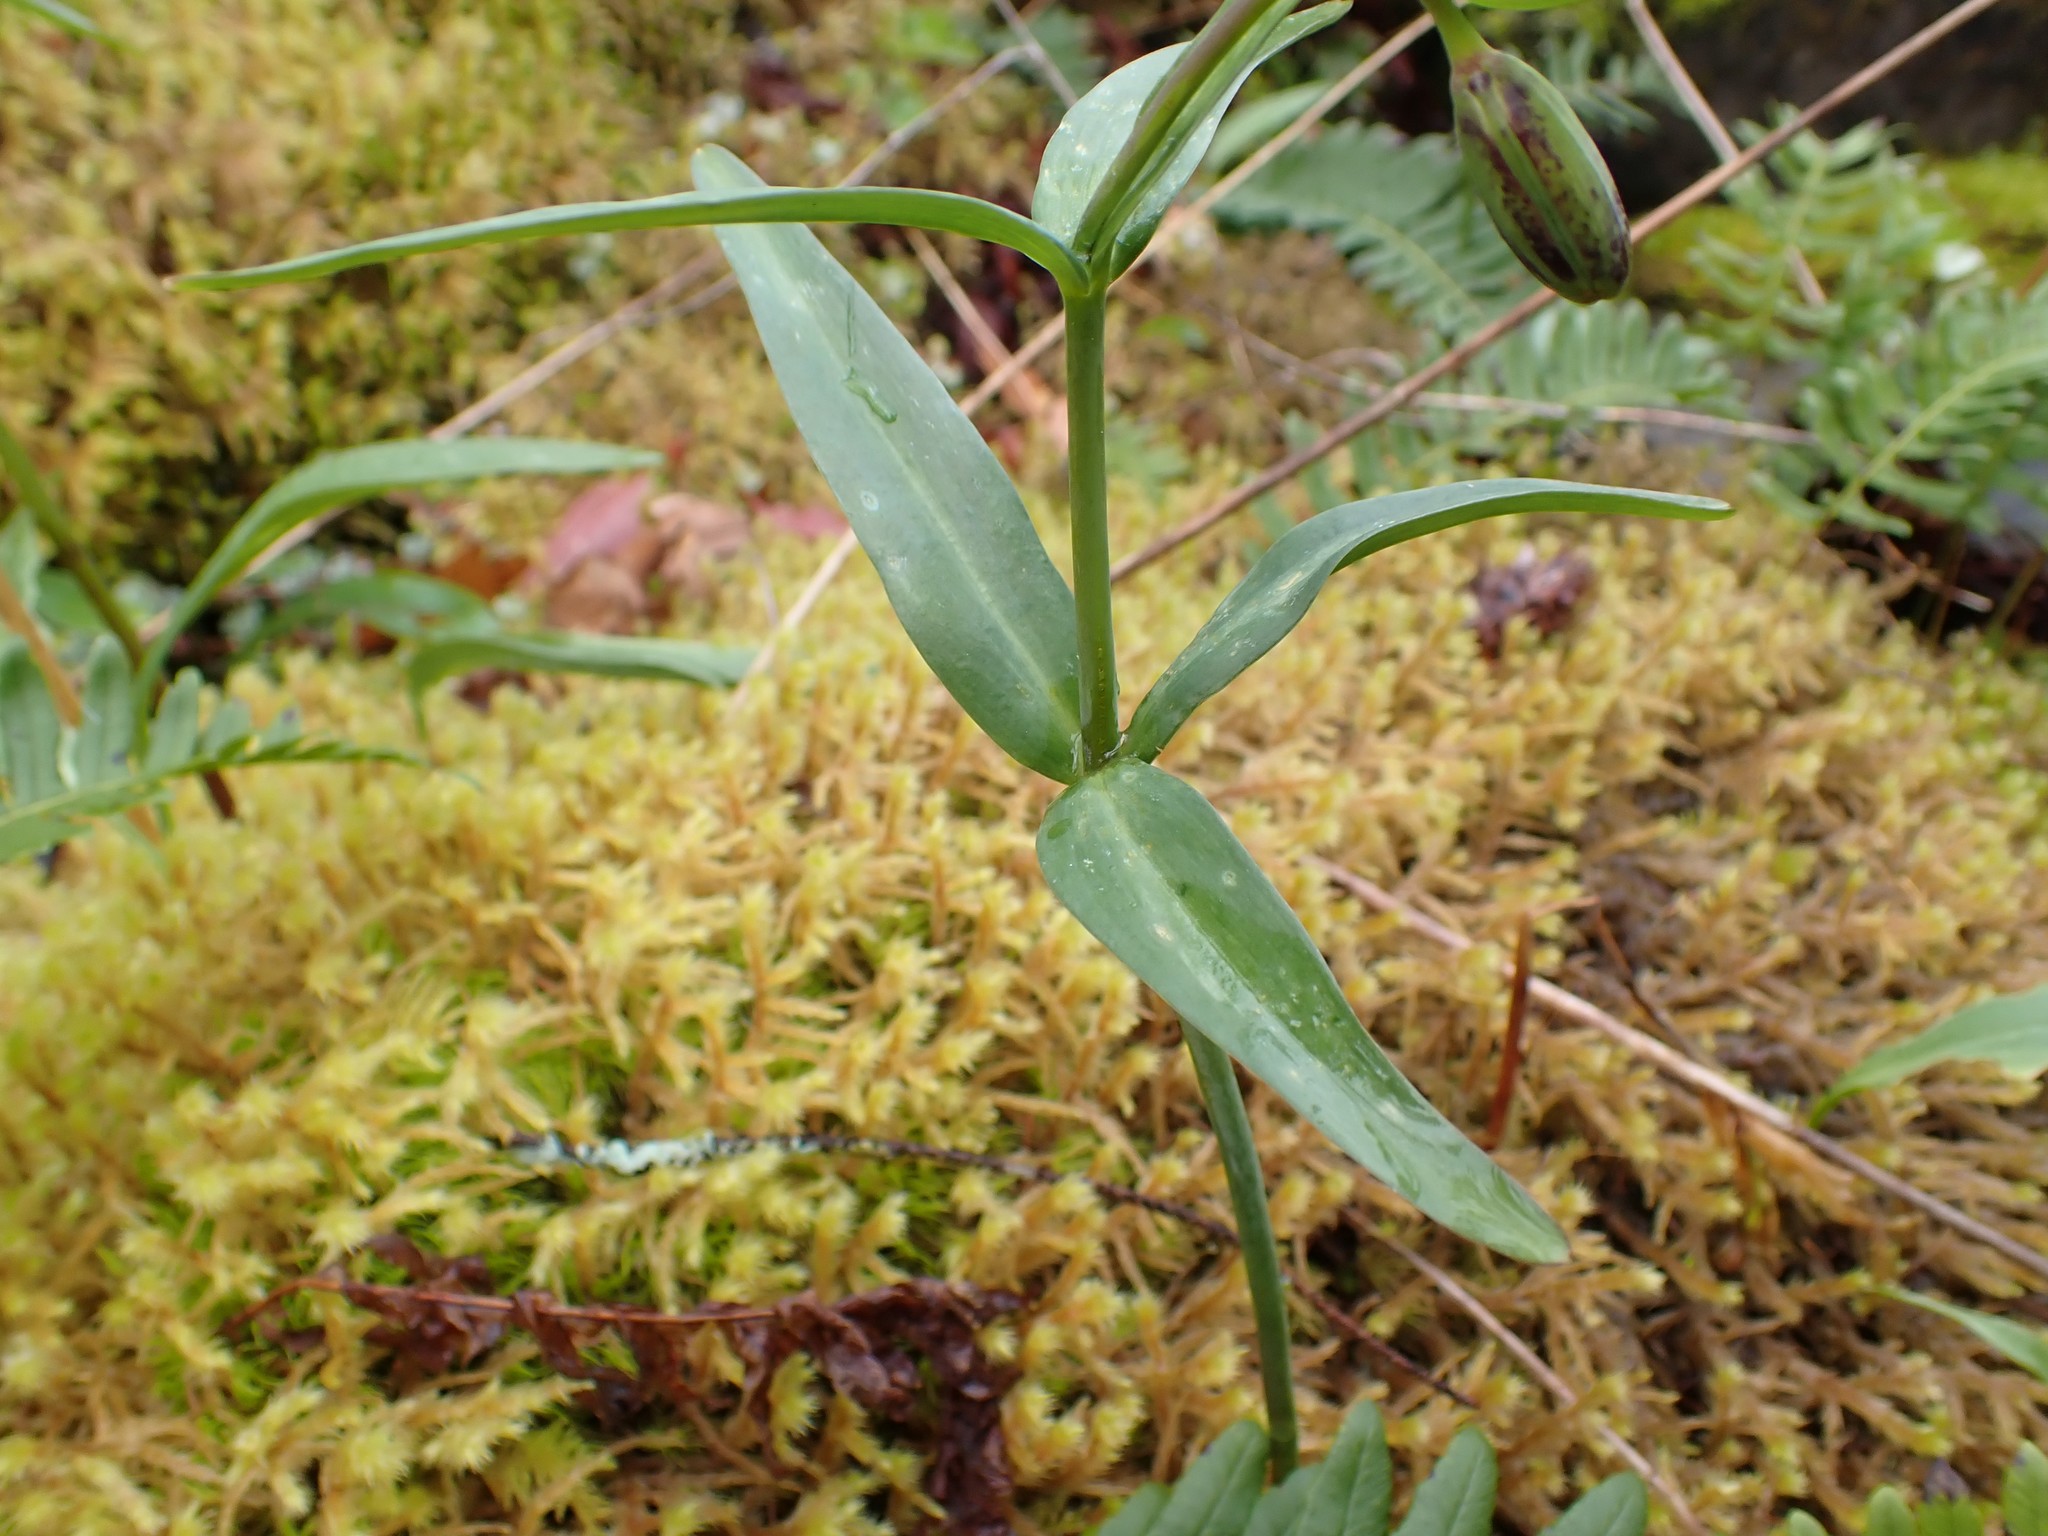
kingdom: Plantae
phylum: Tracheophyta
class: Liliopsida
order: Liliales
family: Liliaceae
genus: Fritillaria
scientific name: Fritillaria affinis
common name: Ojai fritillary
